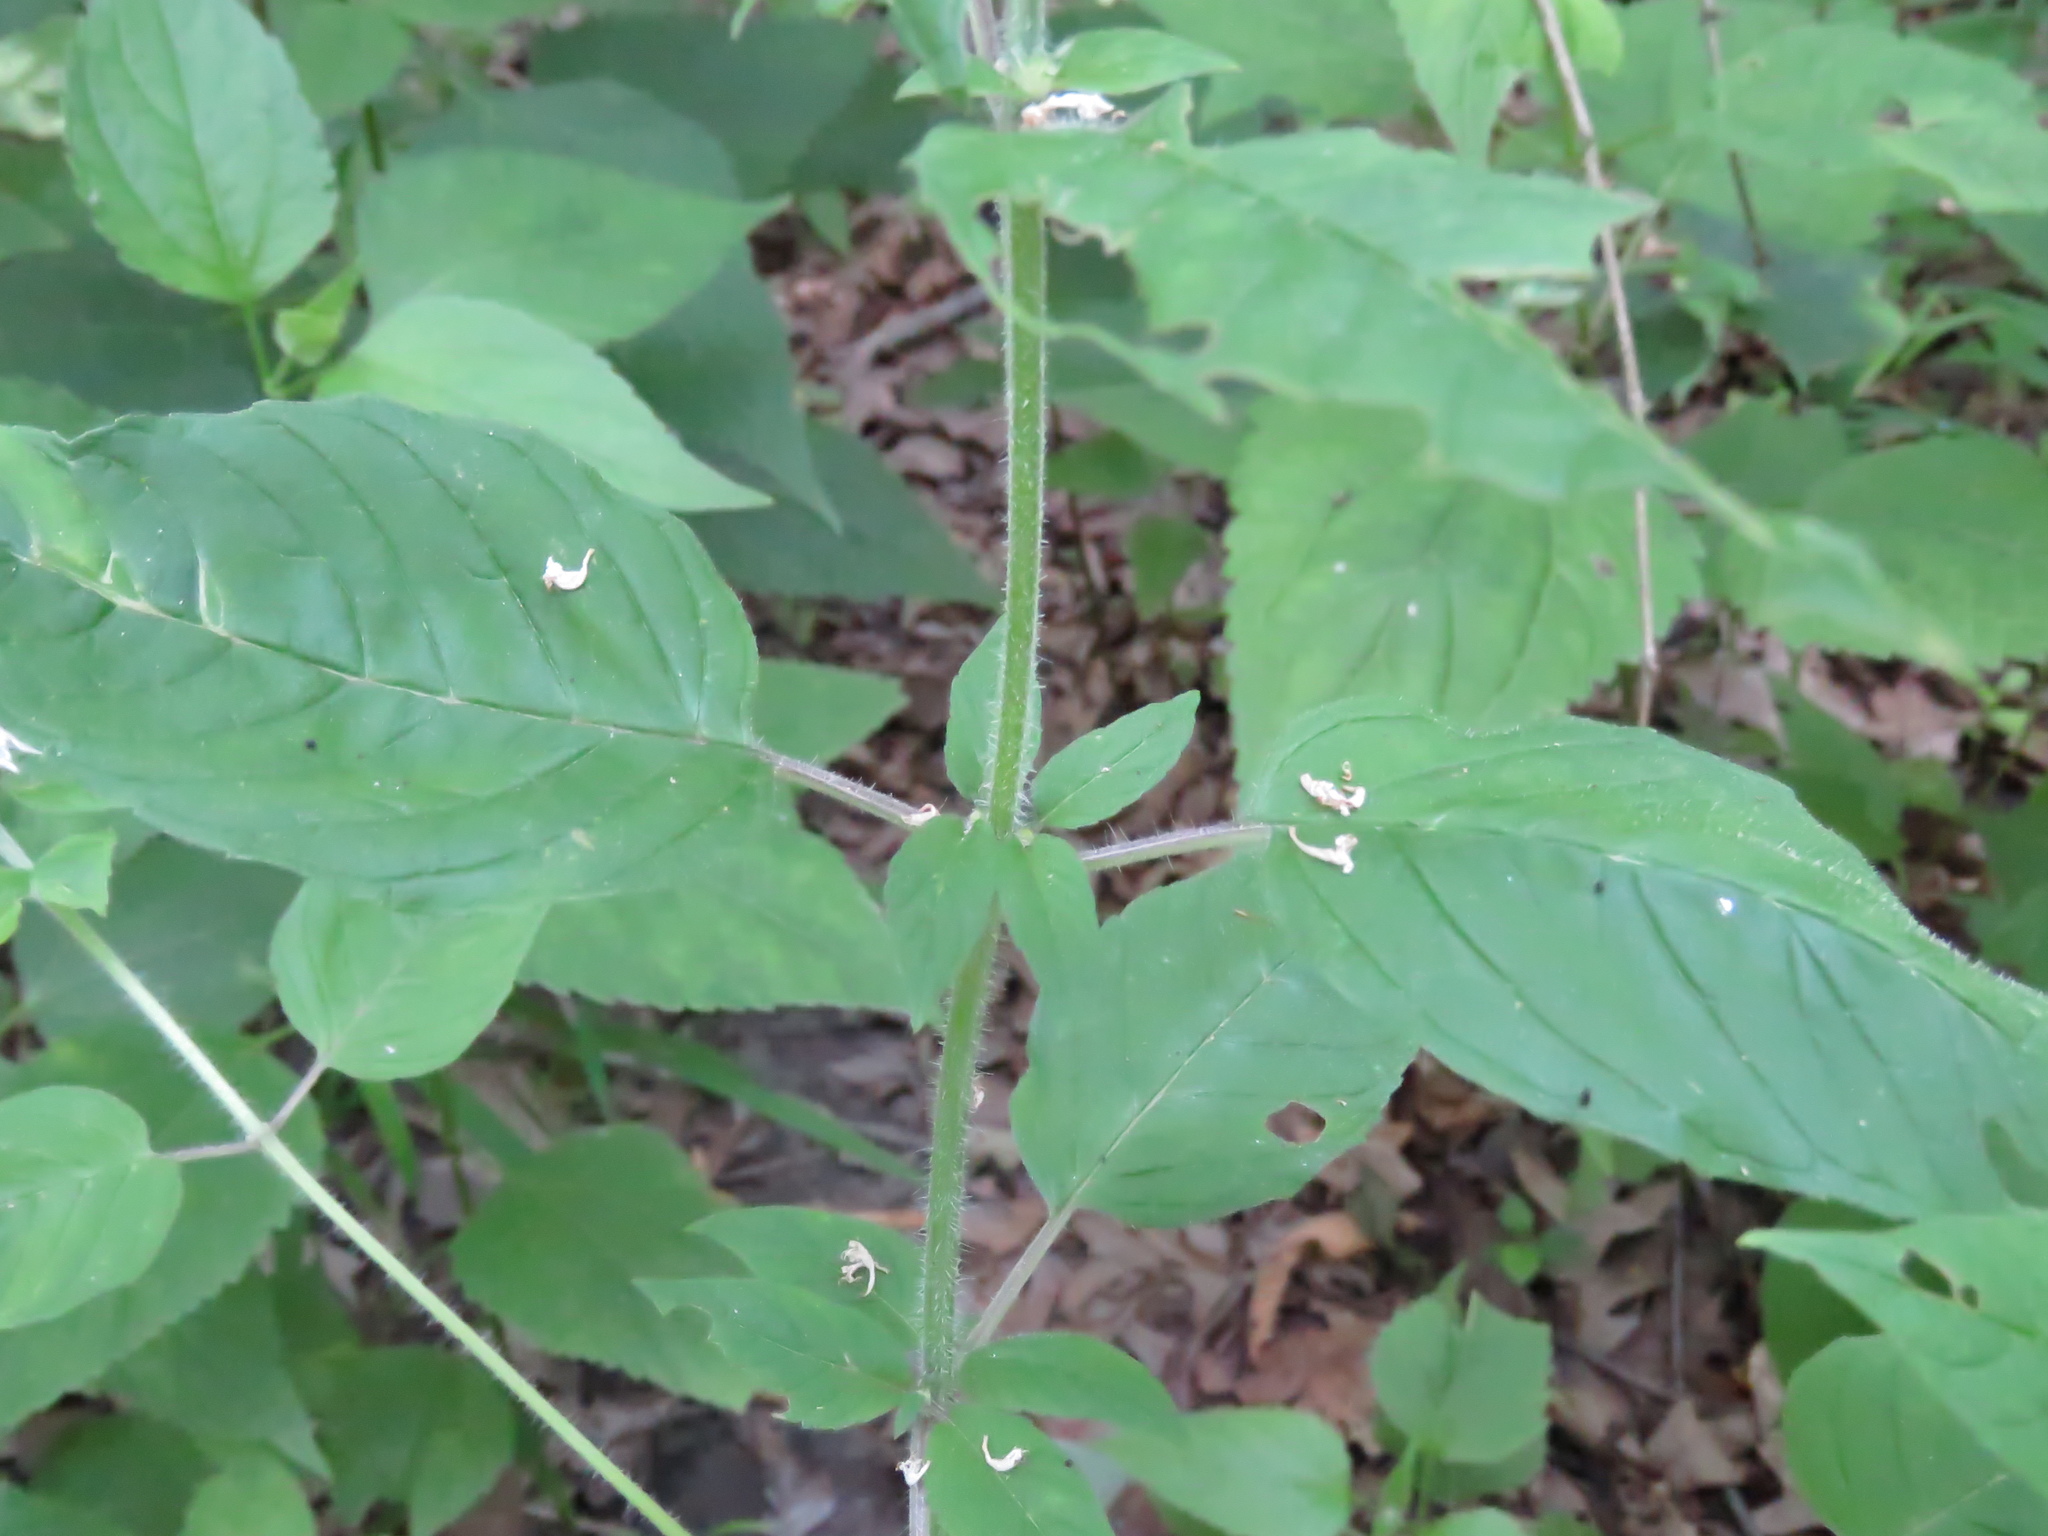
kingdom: Plantae
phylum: Tracheophyta
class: Magnoliopsida
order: Lamiales
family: Lamiaceae
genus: Blephilia
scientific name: Blephilia hirsuta
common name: Hairy blephilia
